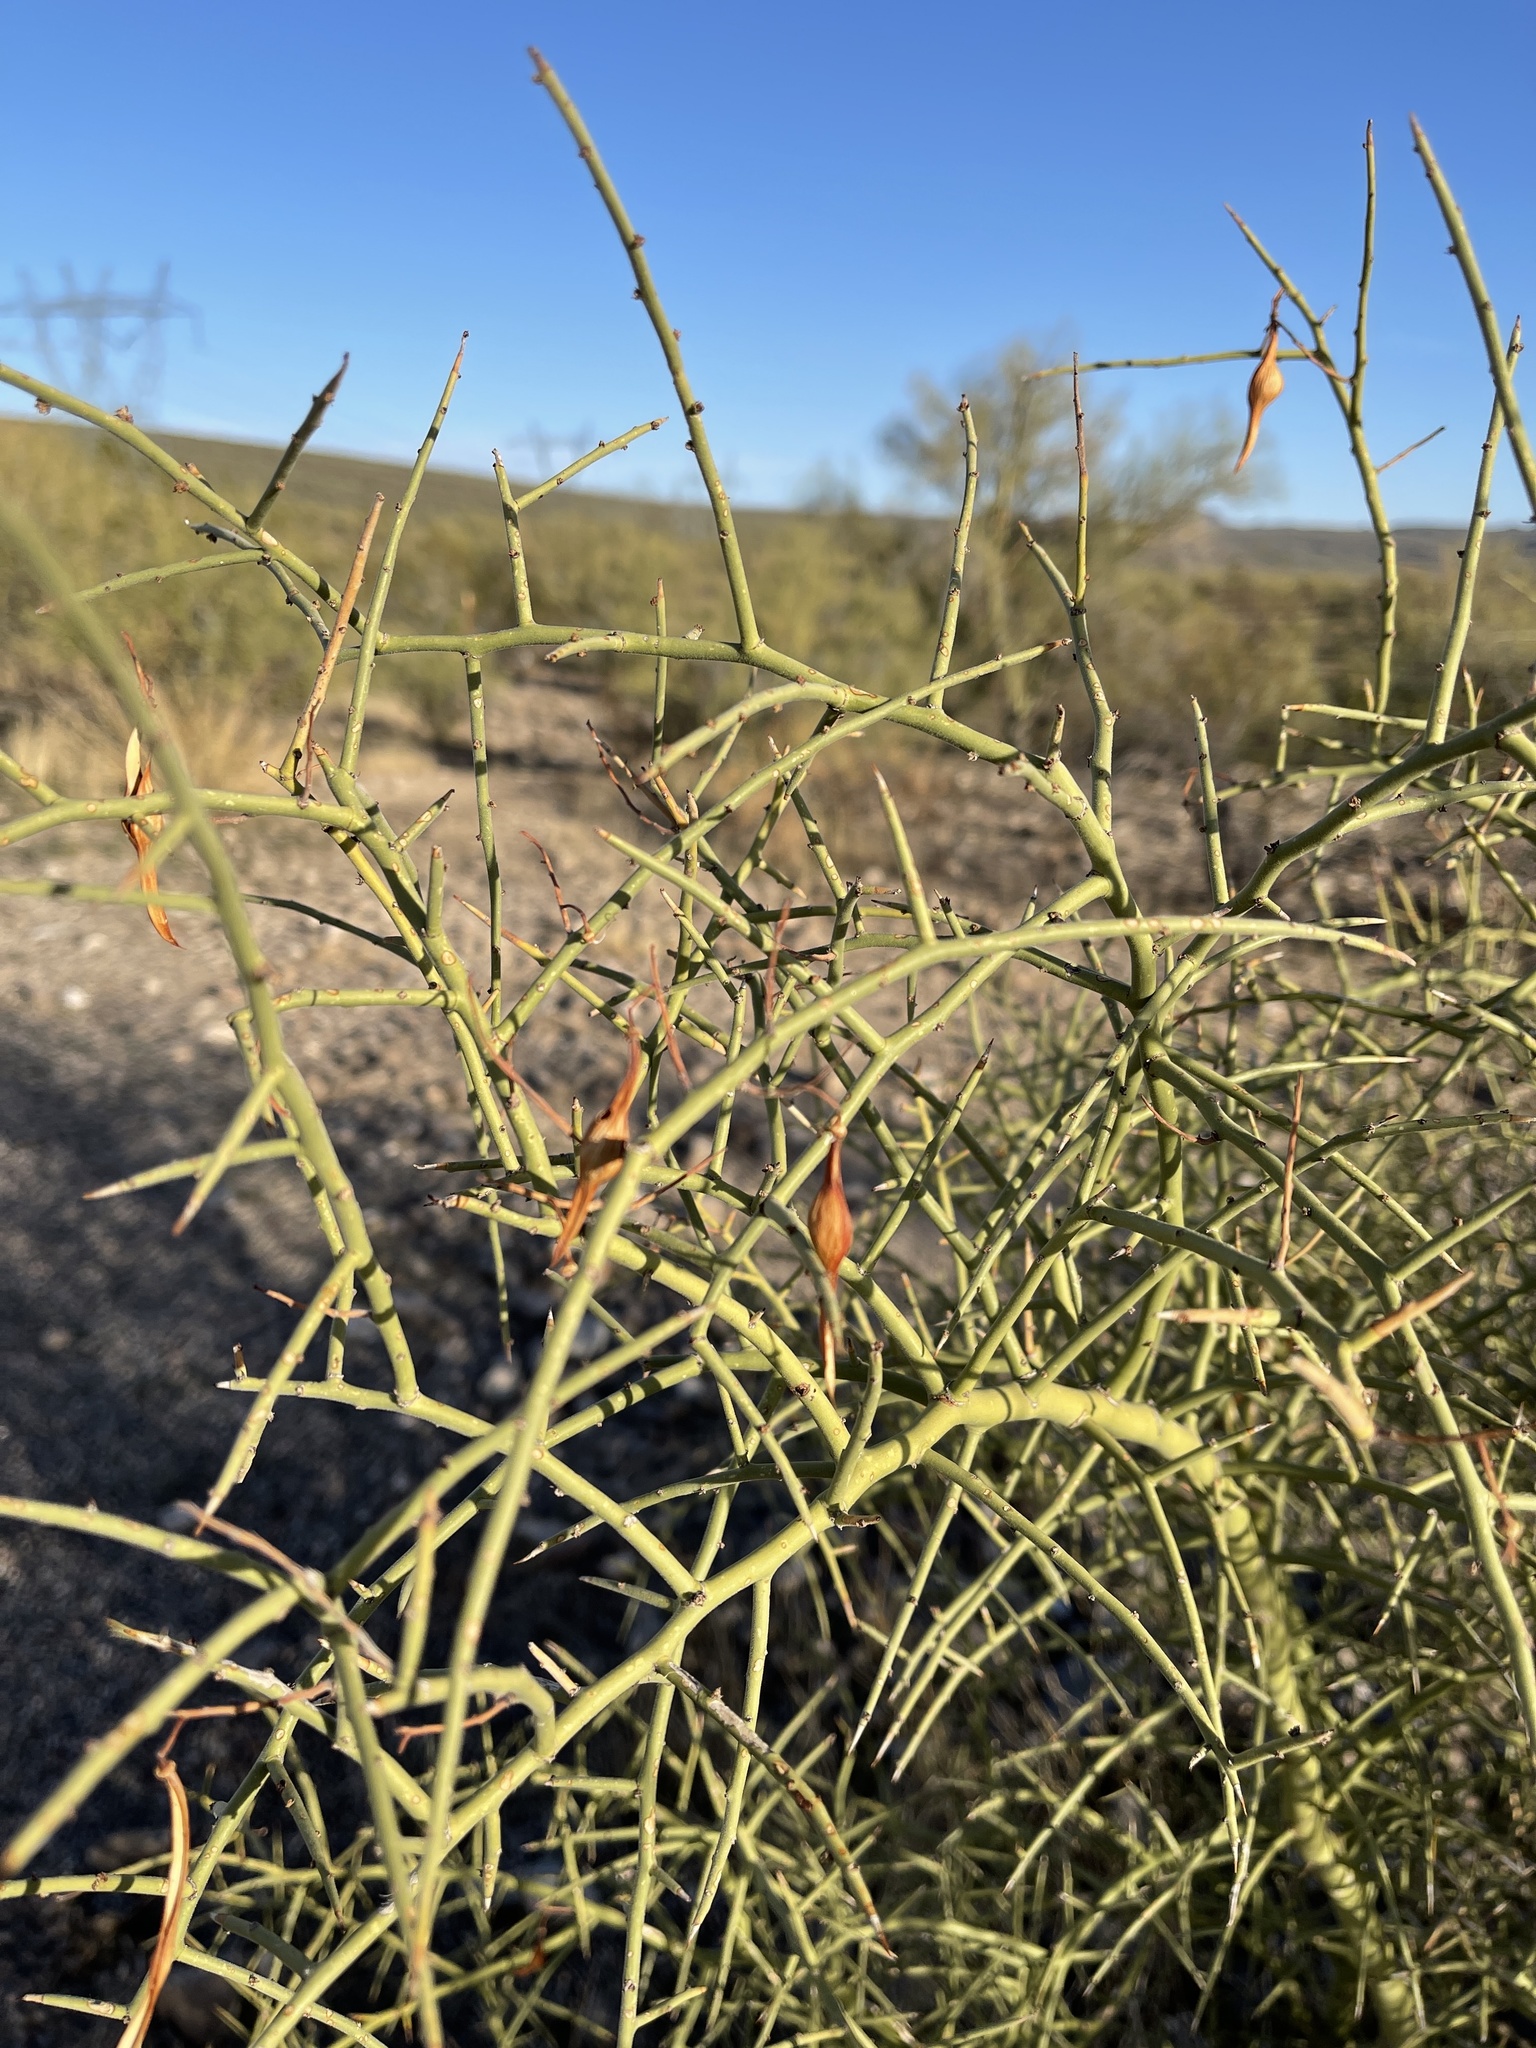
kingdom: Plantae
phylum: Tracheophyta
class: Magnoliopsida
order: Fabales
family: Fabaceae
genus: Parkinsonia
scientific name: Parkinsonia microphylla
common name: Yellow paloverde
